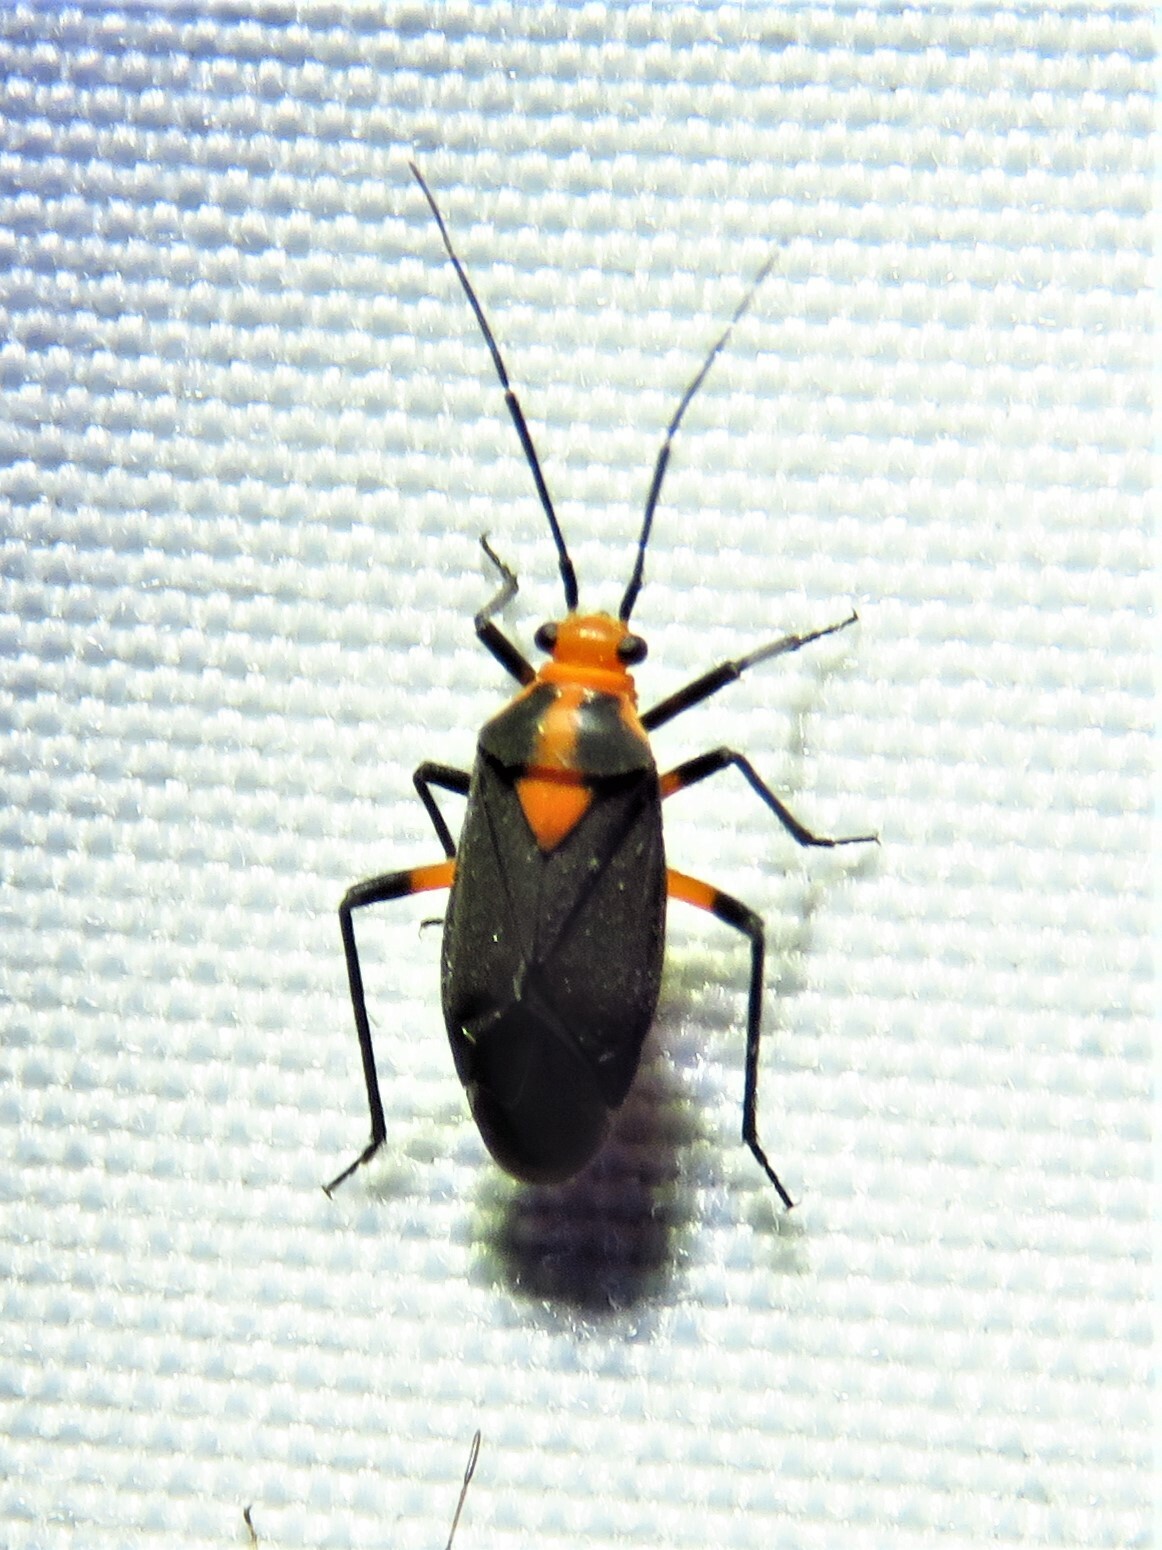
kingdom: Animalia
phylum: Arthropoda
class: Insecta
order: Hemiptera
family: Miridae
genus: Prepops
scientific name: Prepops rubrovittatus
